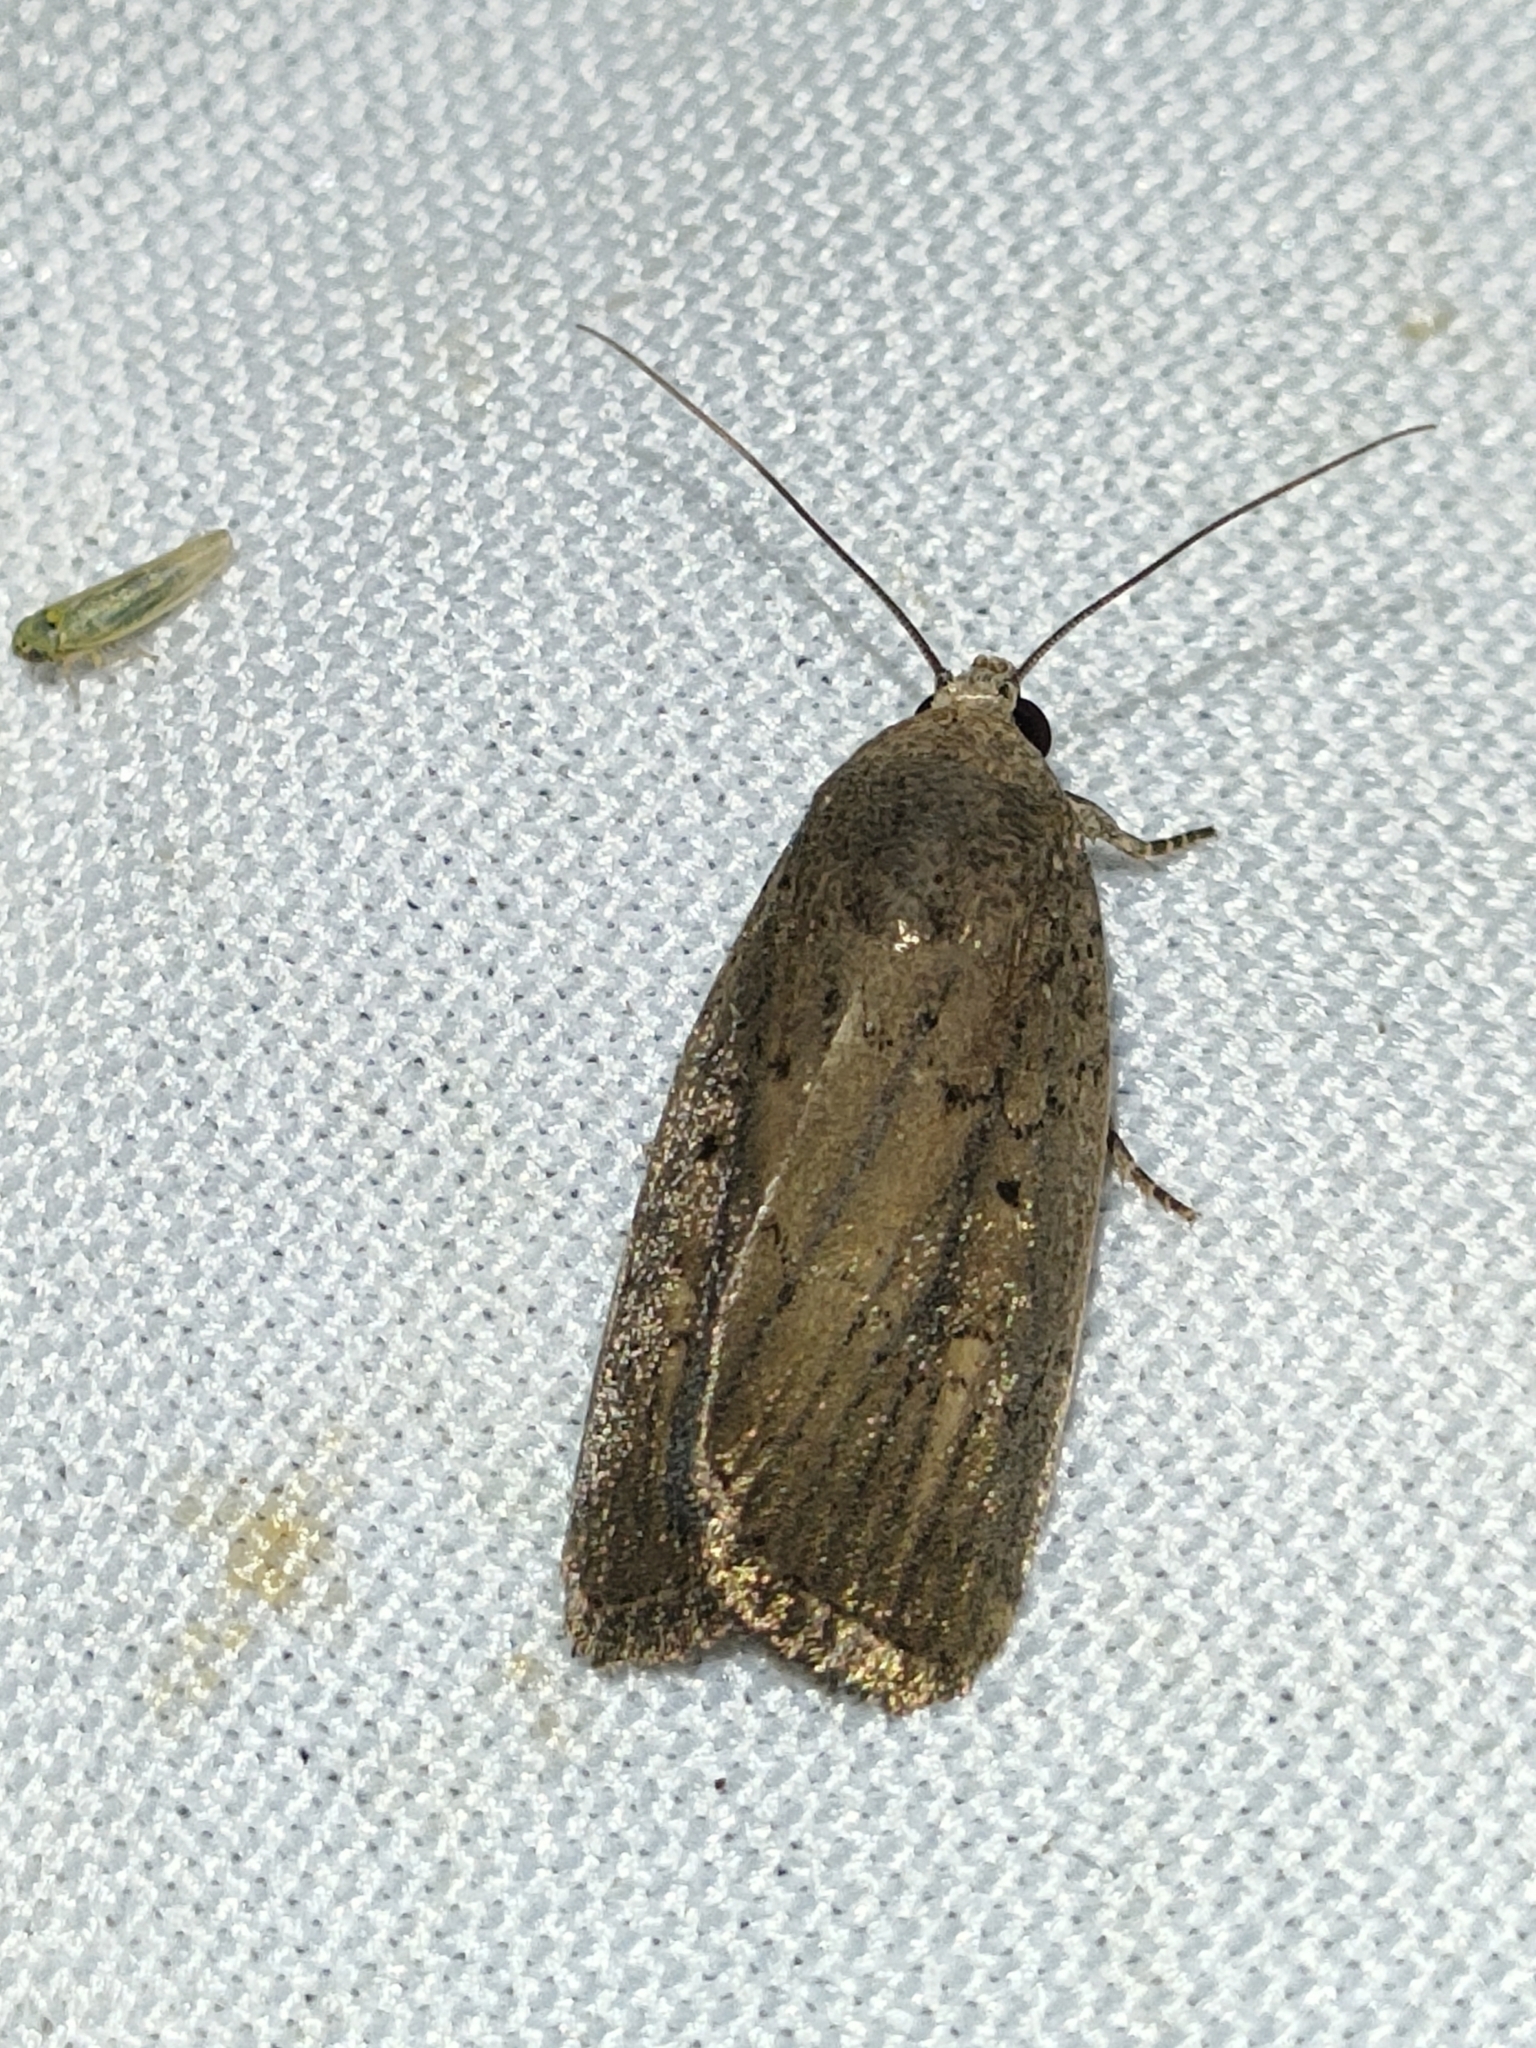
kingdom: Animalia
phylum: Arthropoda
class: Insecta
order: Lepidoptera
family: Noctuidae
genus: Athetis
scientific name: Athetis hospes
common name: Porter's rustic
